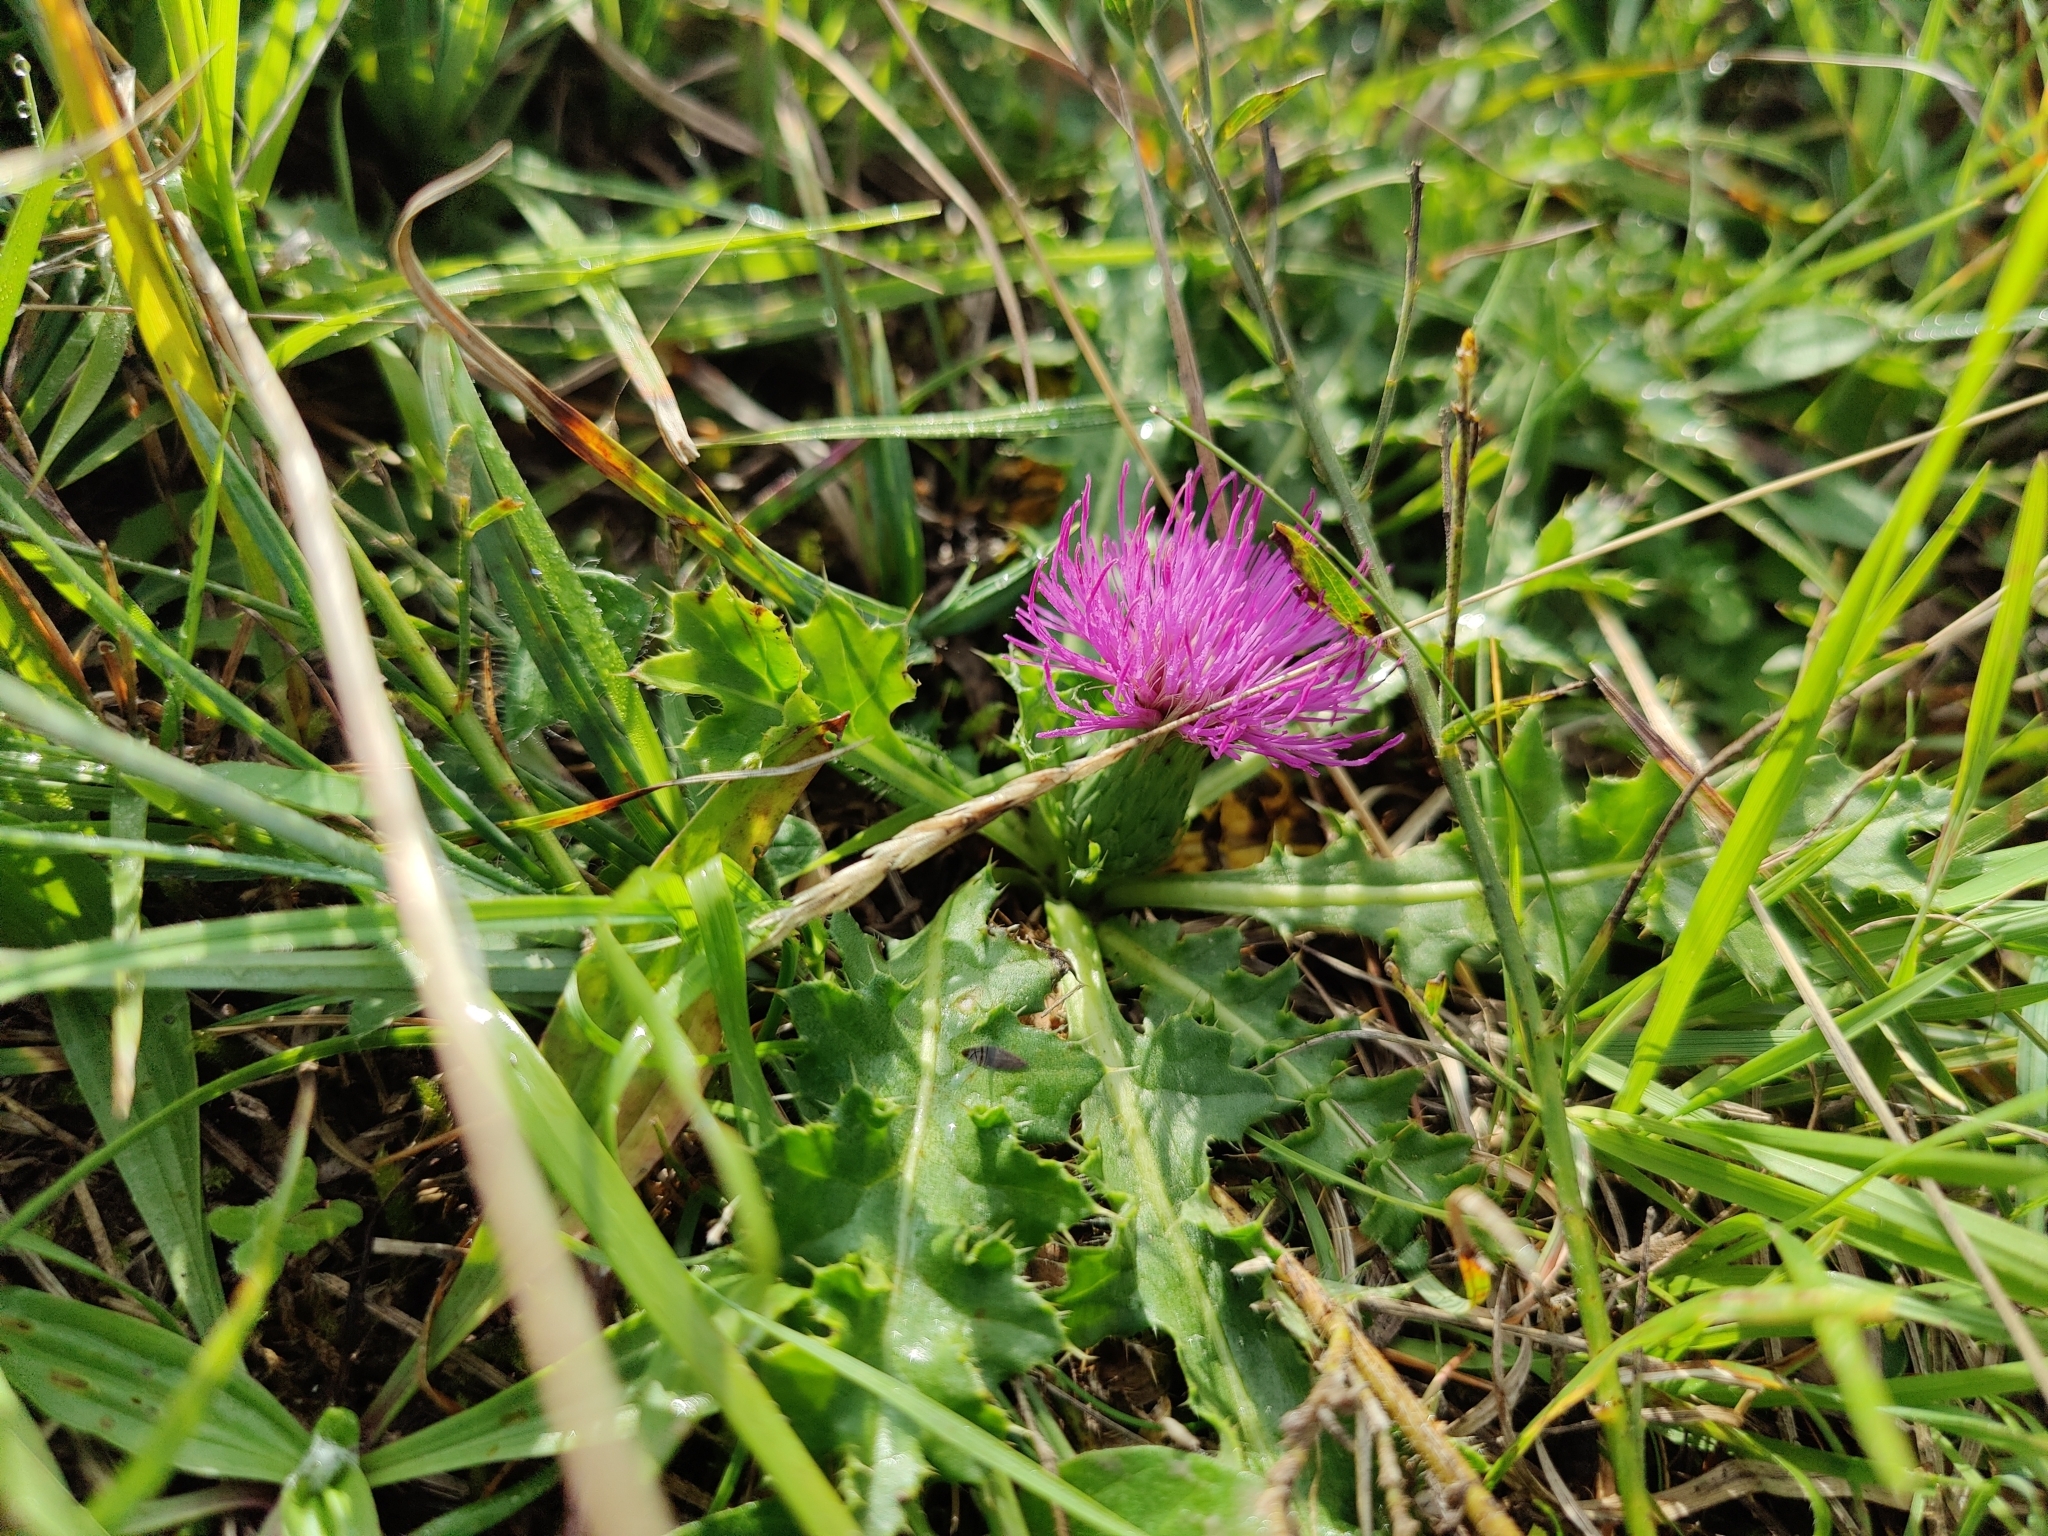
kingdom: Plantae
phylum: Tracheophyta
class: Magnoliopsida
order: Asterales
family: Asteraceae
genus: Cirsium
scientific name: Cirsium acaulon
